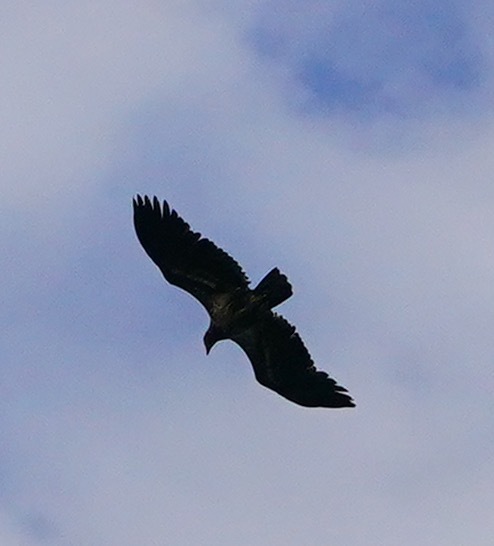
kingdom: Animalia
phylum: Chordata
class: Aves
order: Accipitriformes
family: Accipitridae
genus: Haliaeetus
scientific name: Haliaeetus leucocephalus
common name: Bald eagle
